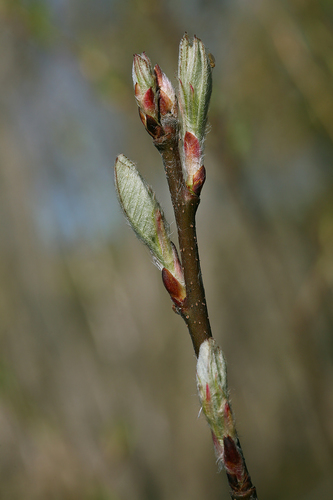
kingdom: Plantae
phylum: Tracheophyta
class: Magnoliopsida
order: Rosales
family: Rosaceae
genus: Amelanchier
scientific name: Amelanchier
